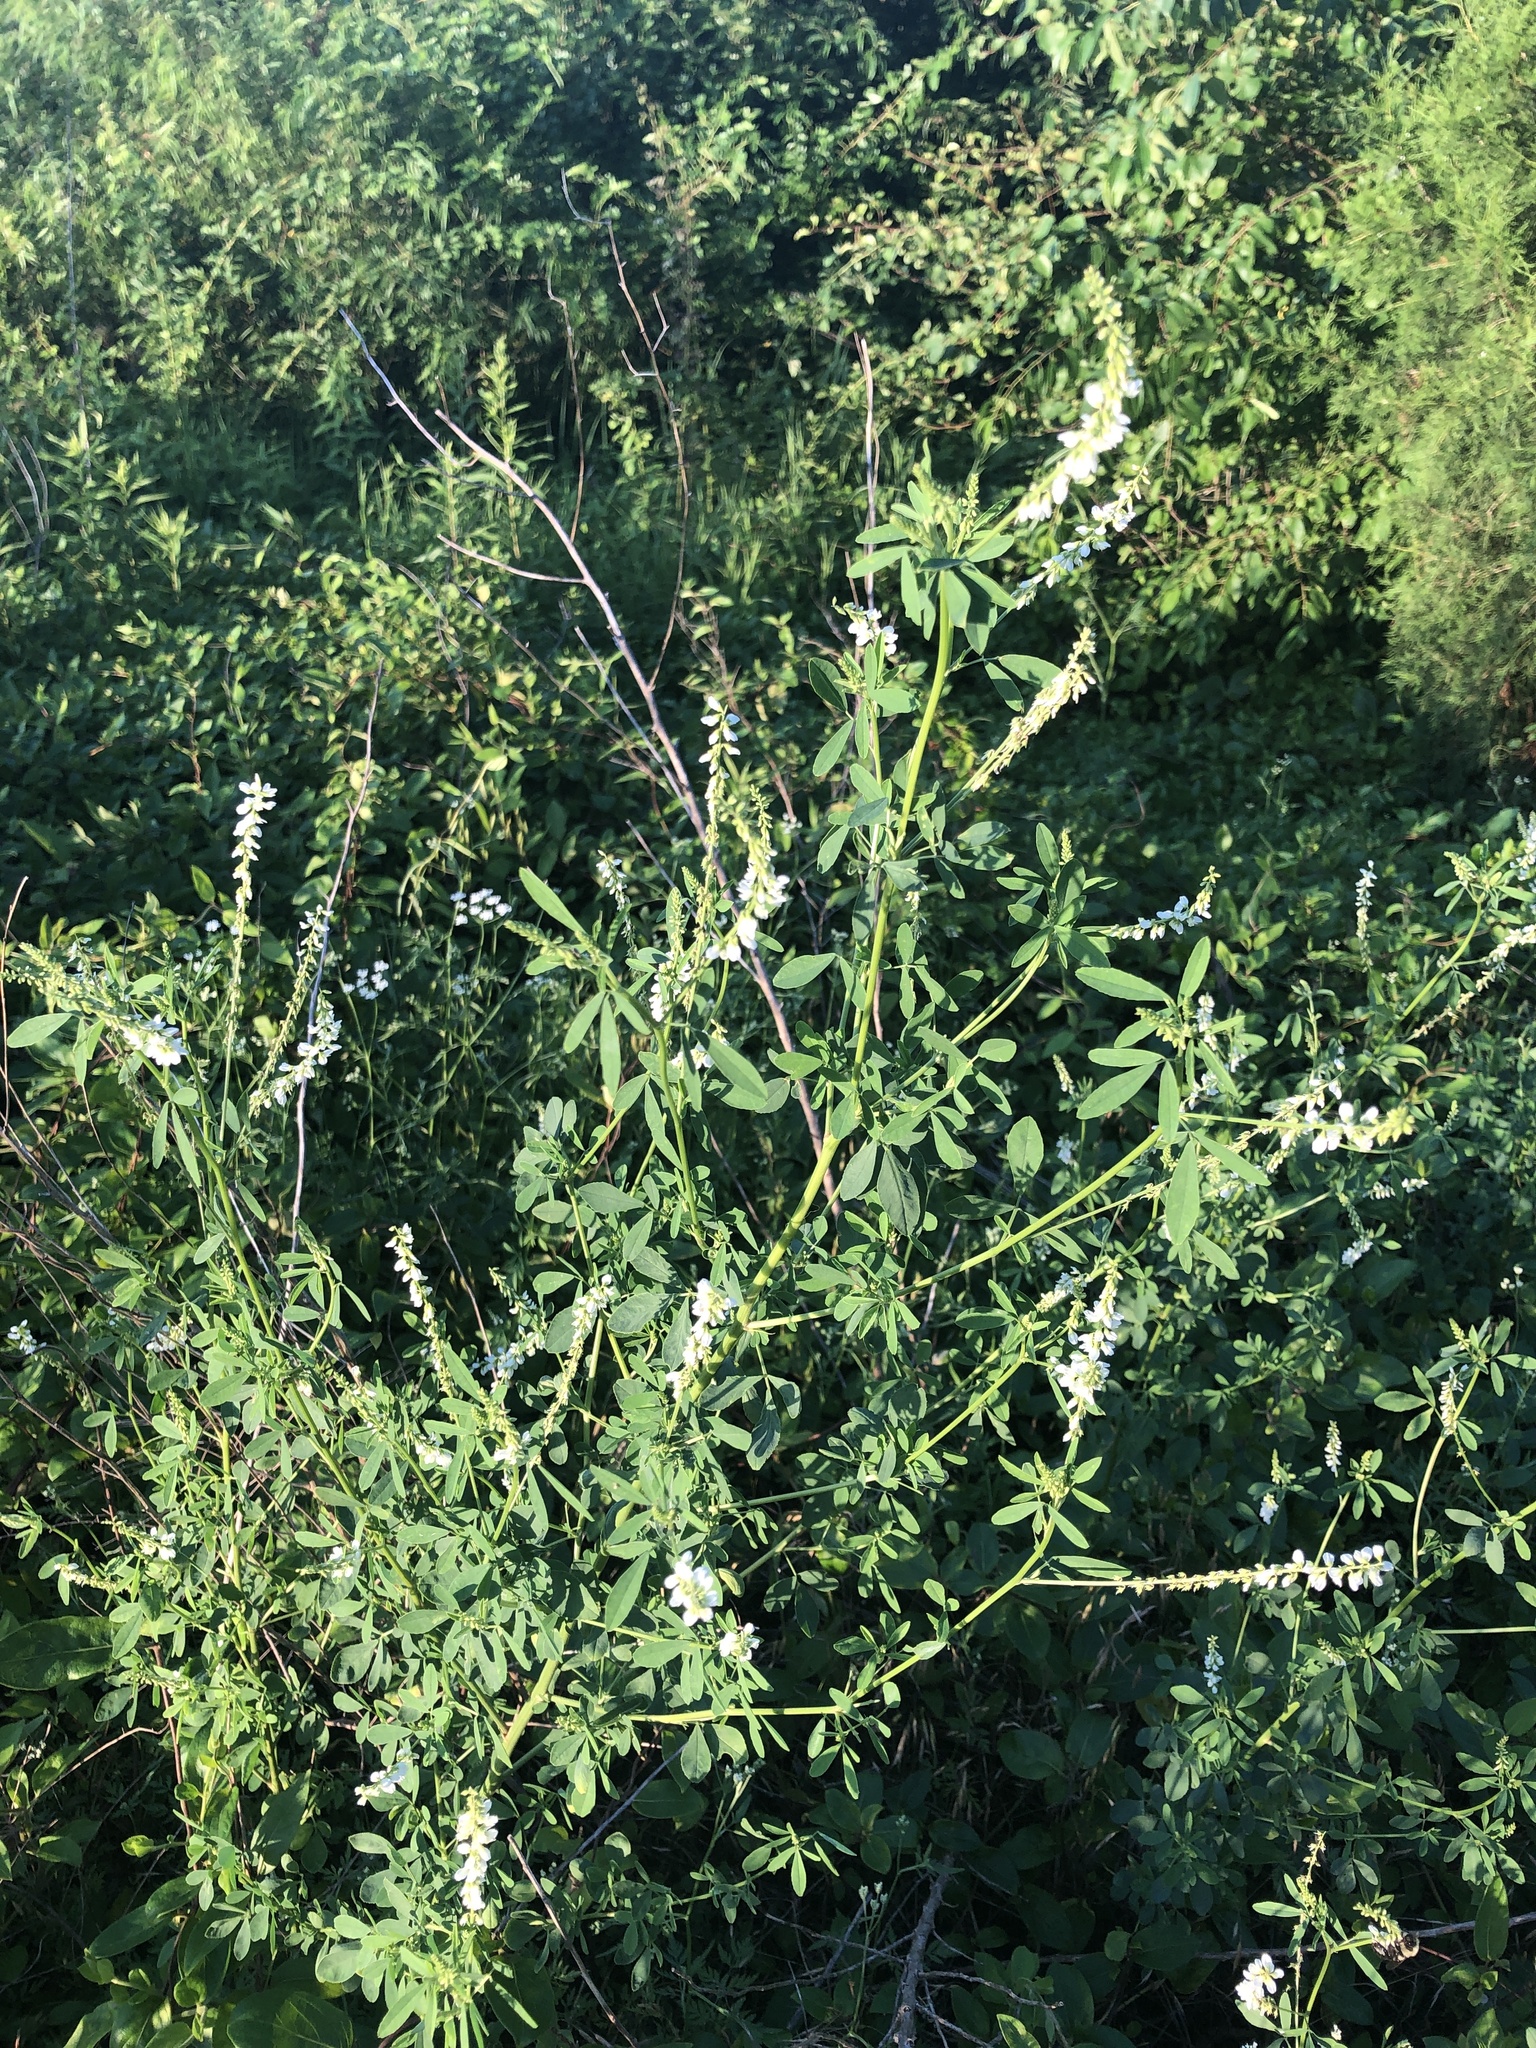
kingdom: Plantae
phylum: Tracheophyta
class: Magnoliopsida
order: Fabales
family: Fabaceae
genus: Melilotus
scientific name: Melilotus albus
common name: White melilot
